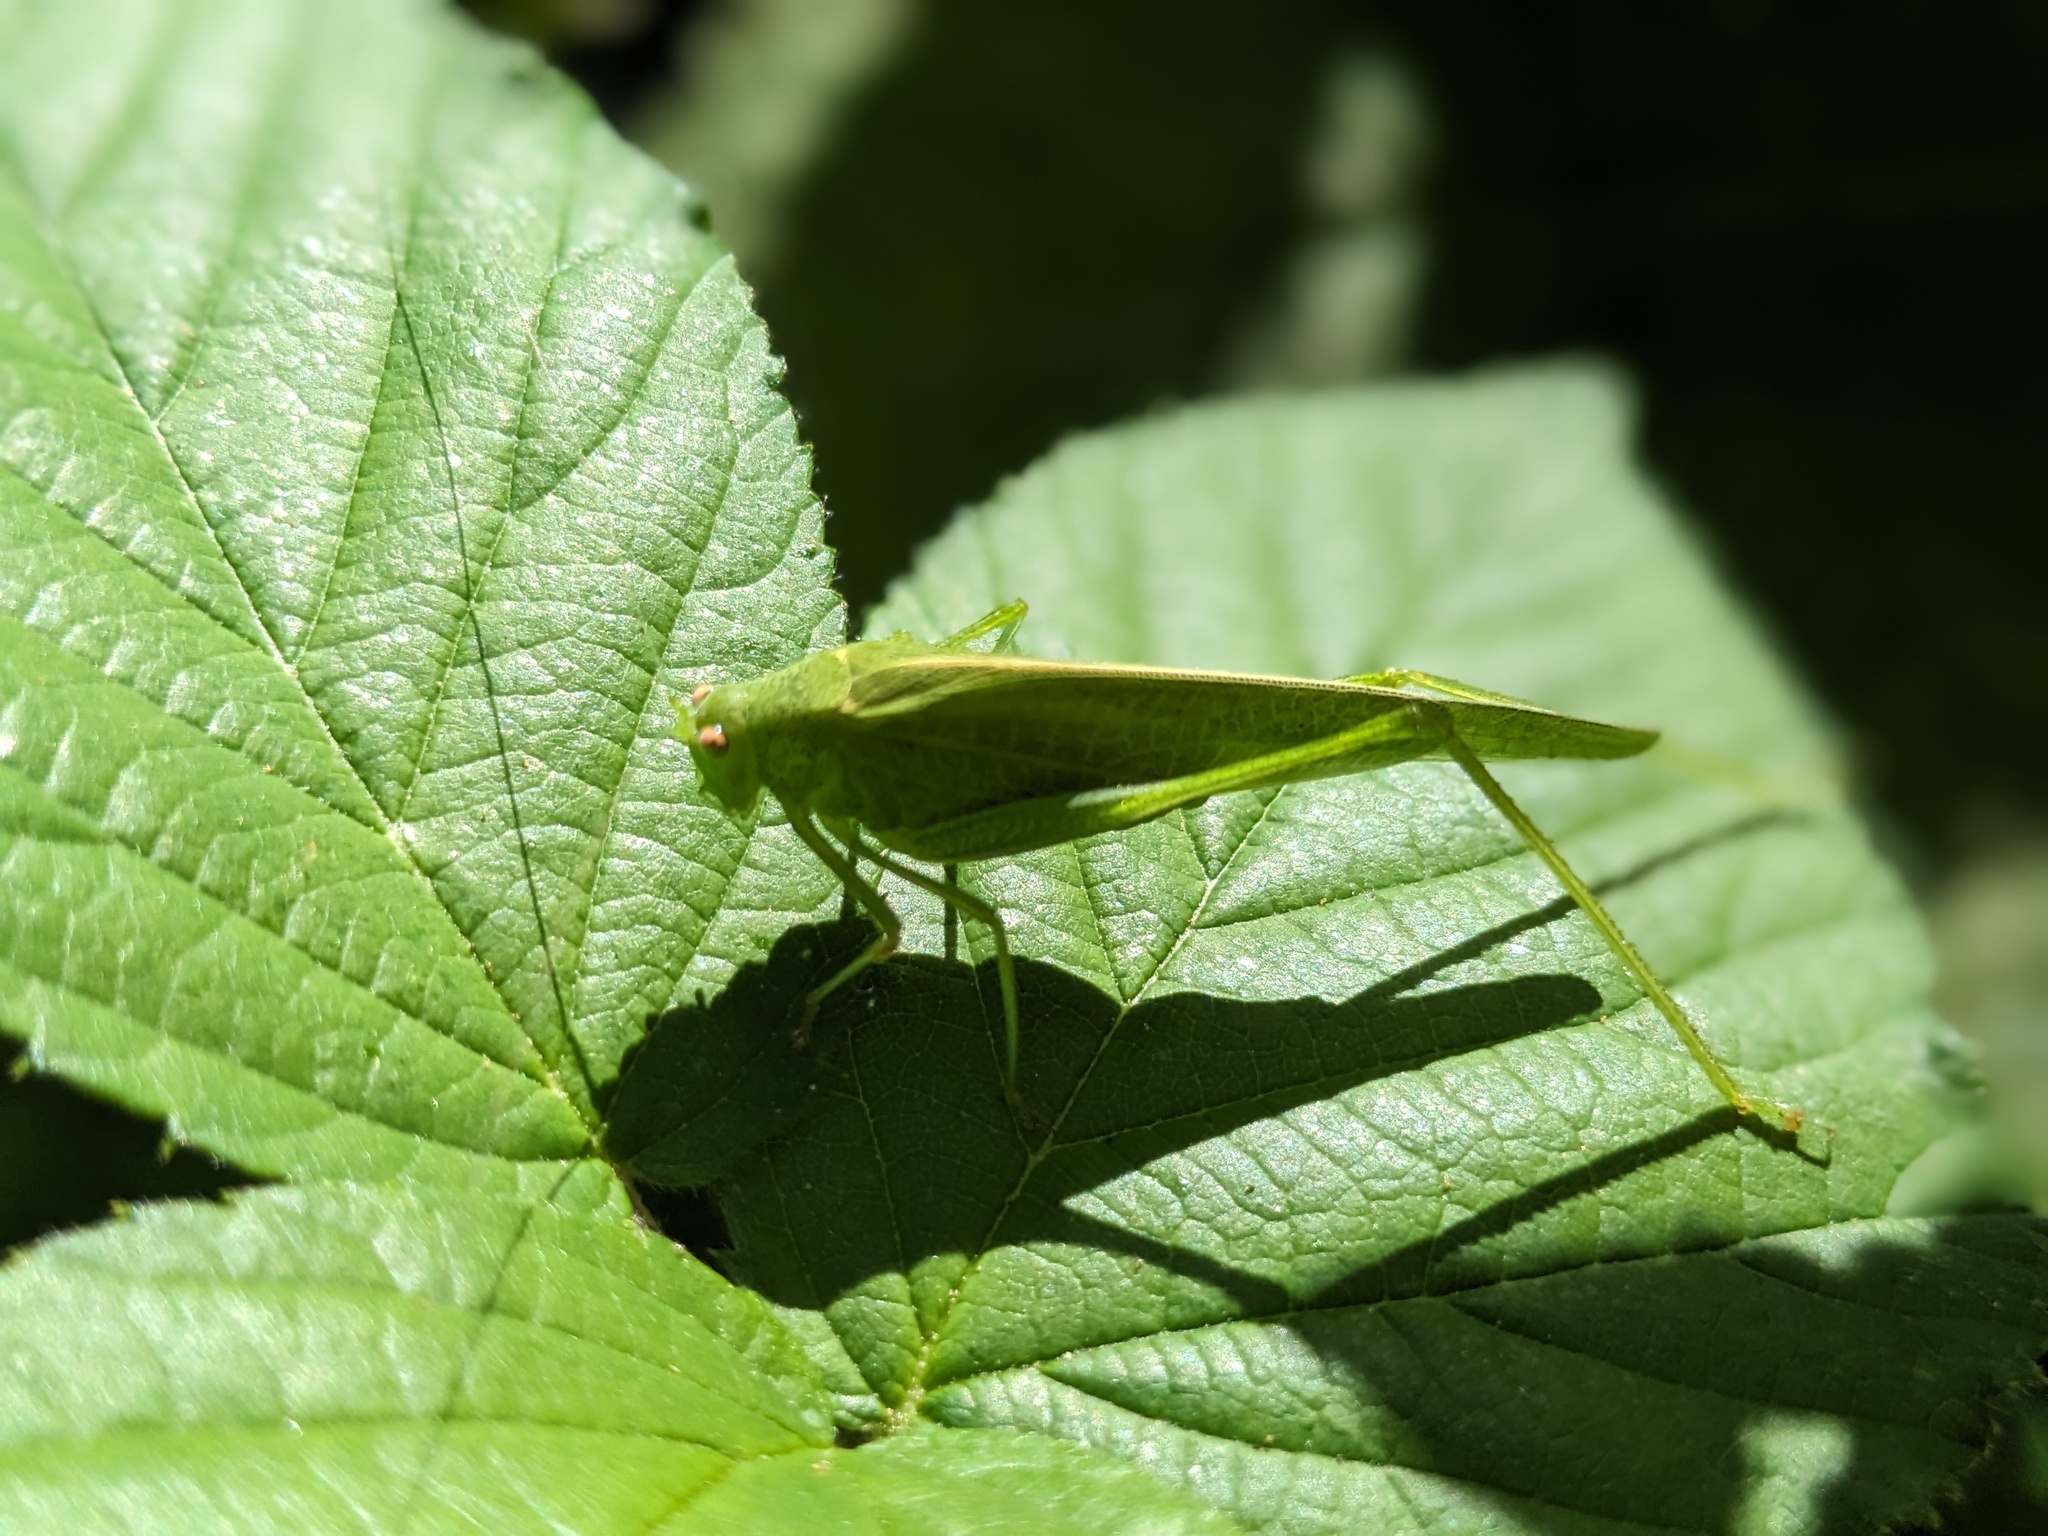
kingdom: Animalia
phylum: Arthropoda
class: Insecta
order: Orthoptera
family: Tettigoniidae
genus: Phaneroptera
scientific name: Phaneroptera nana
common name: Southern sickle bush-cricket
